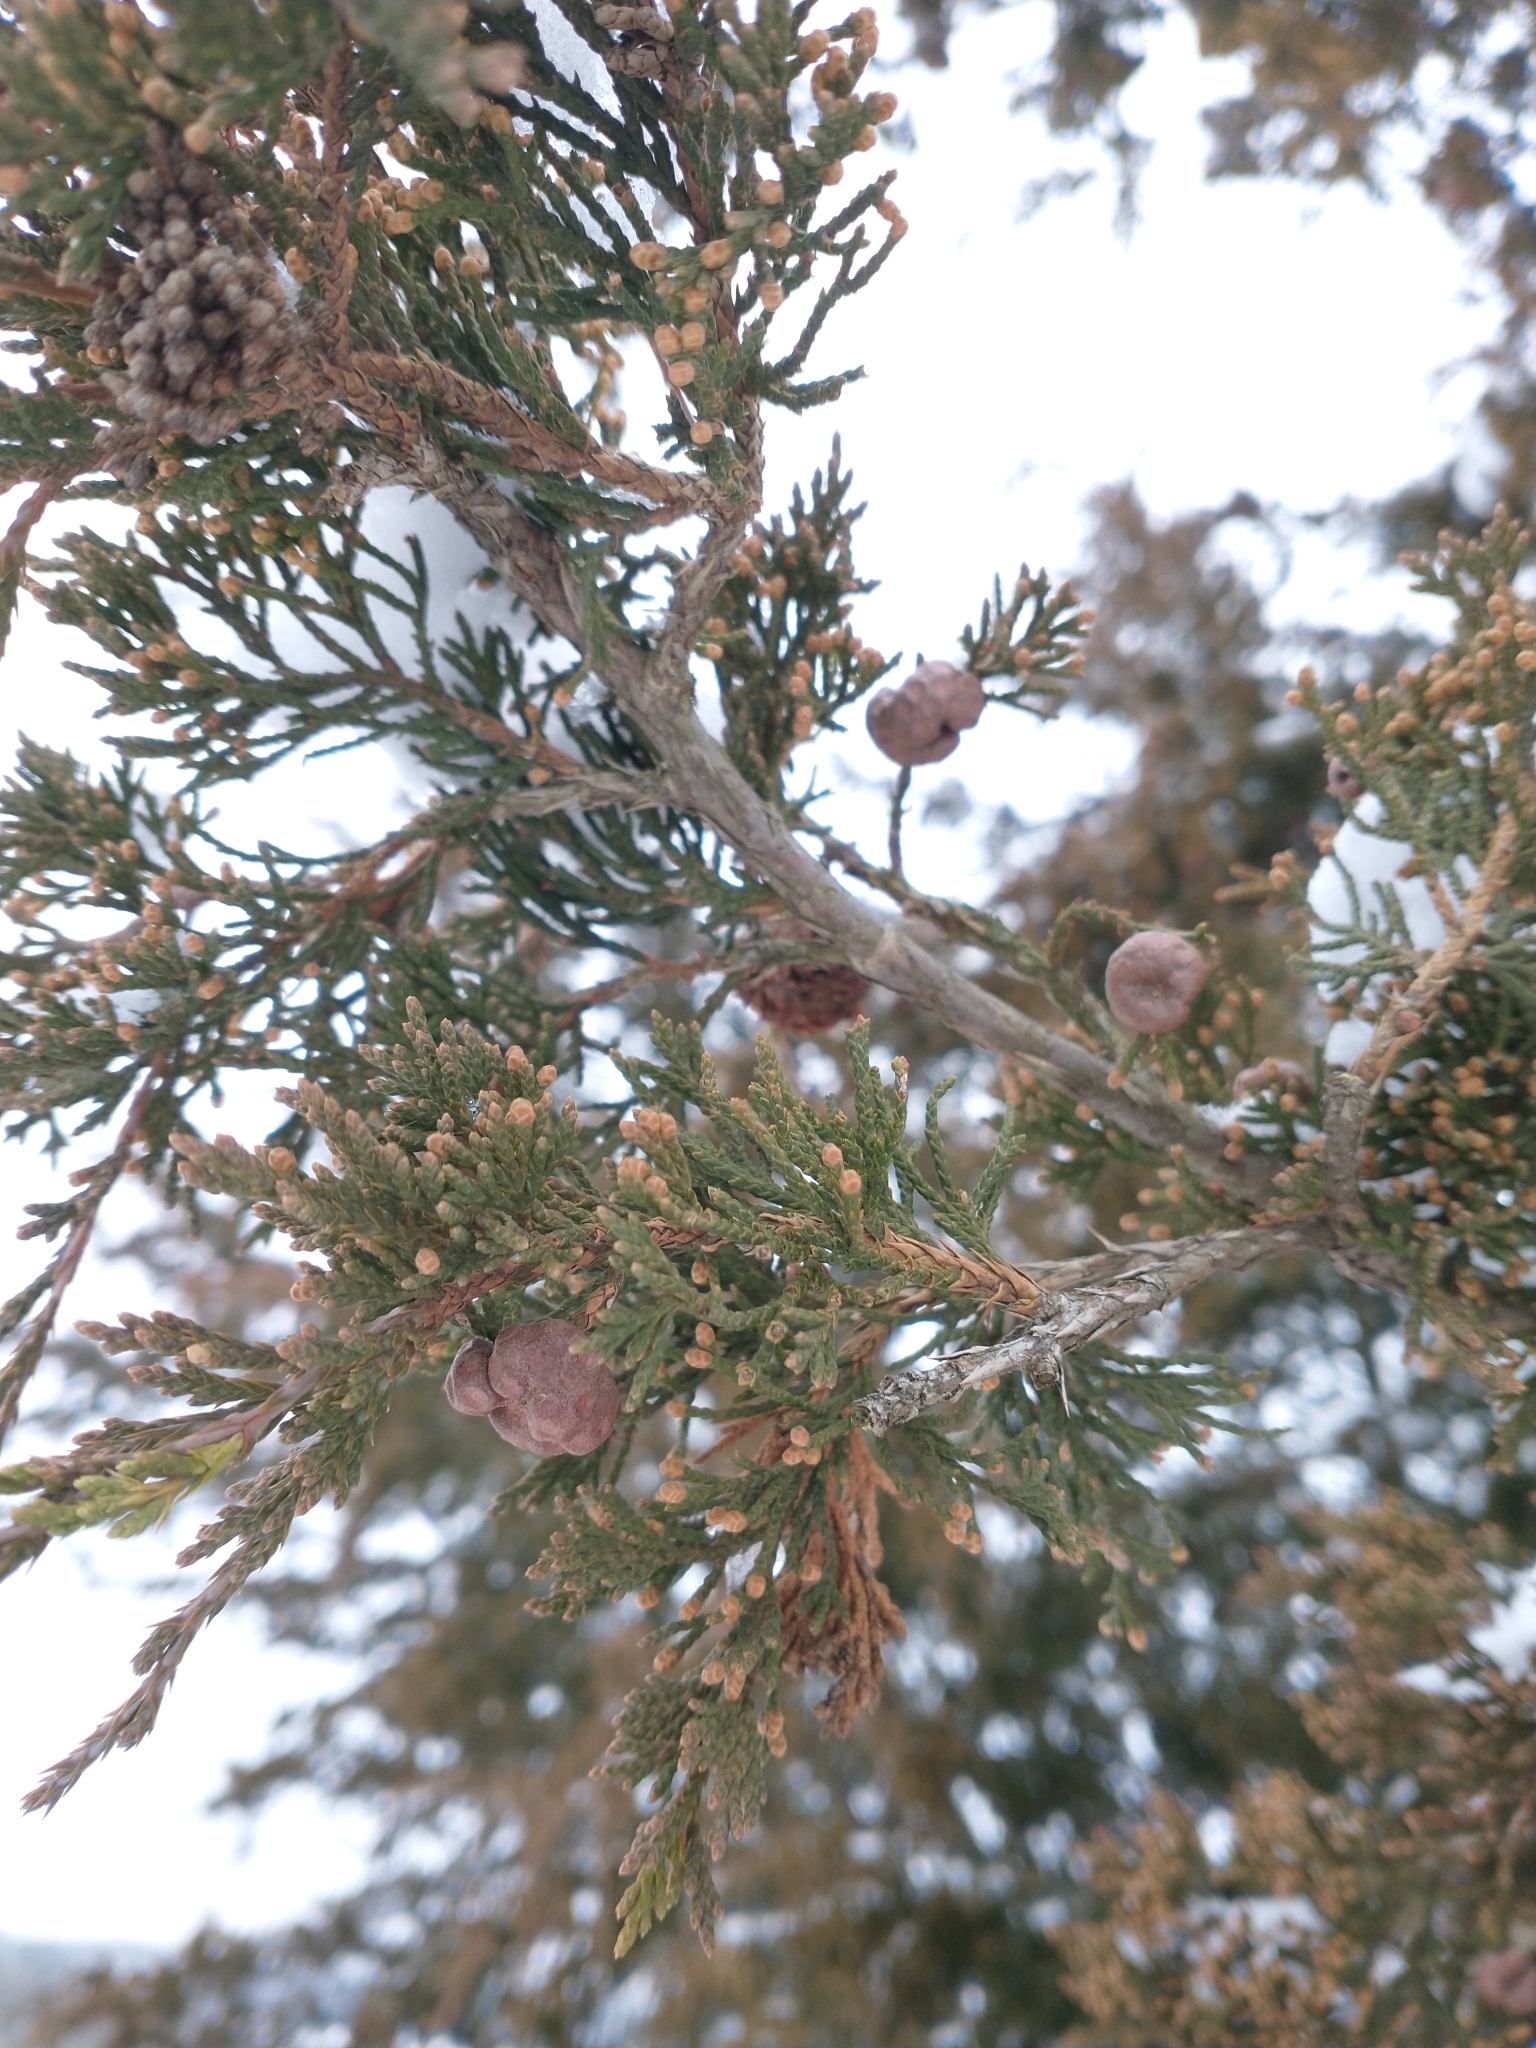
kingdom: Plantae
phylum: Tracheophyta
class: Pinopsida
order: Pinales
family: Cupressaceae
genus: Juniperus
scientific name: Juniperus virginiana
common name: Red juniper
